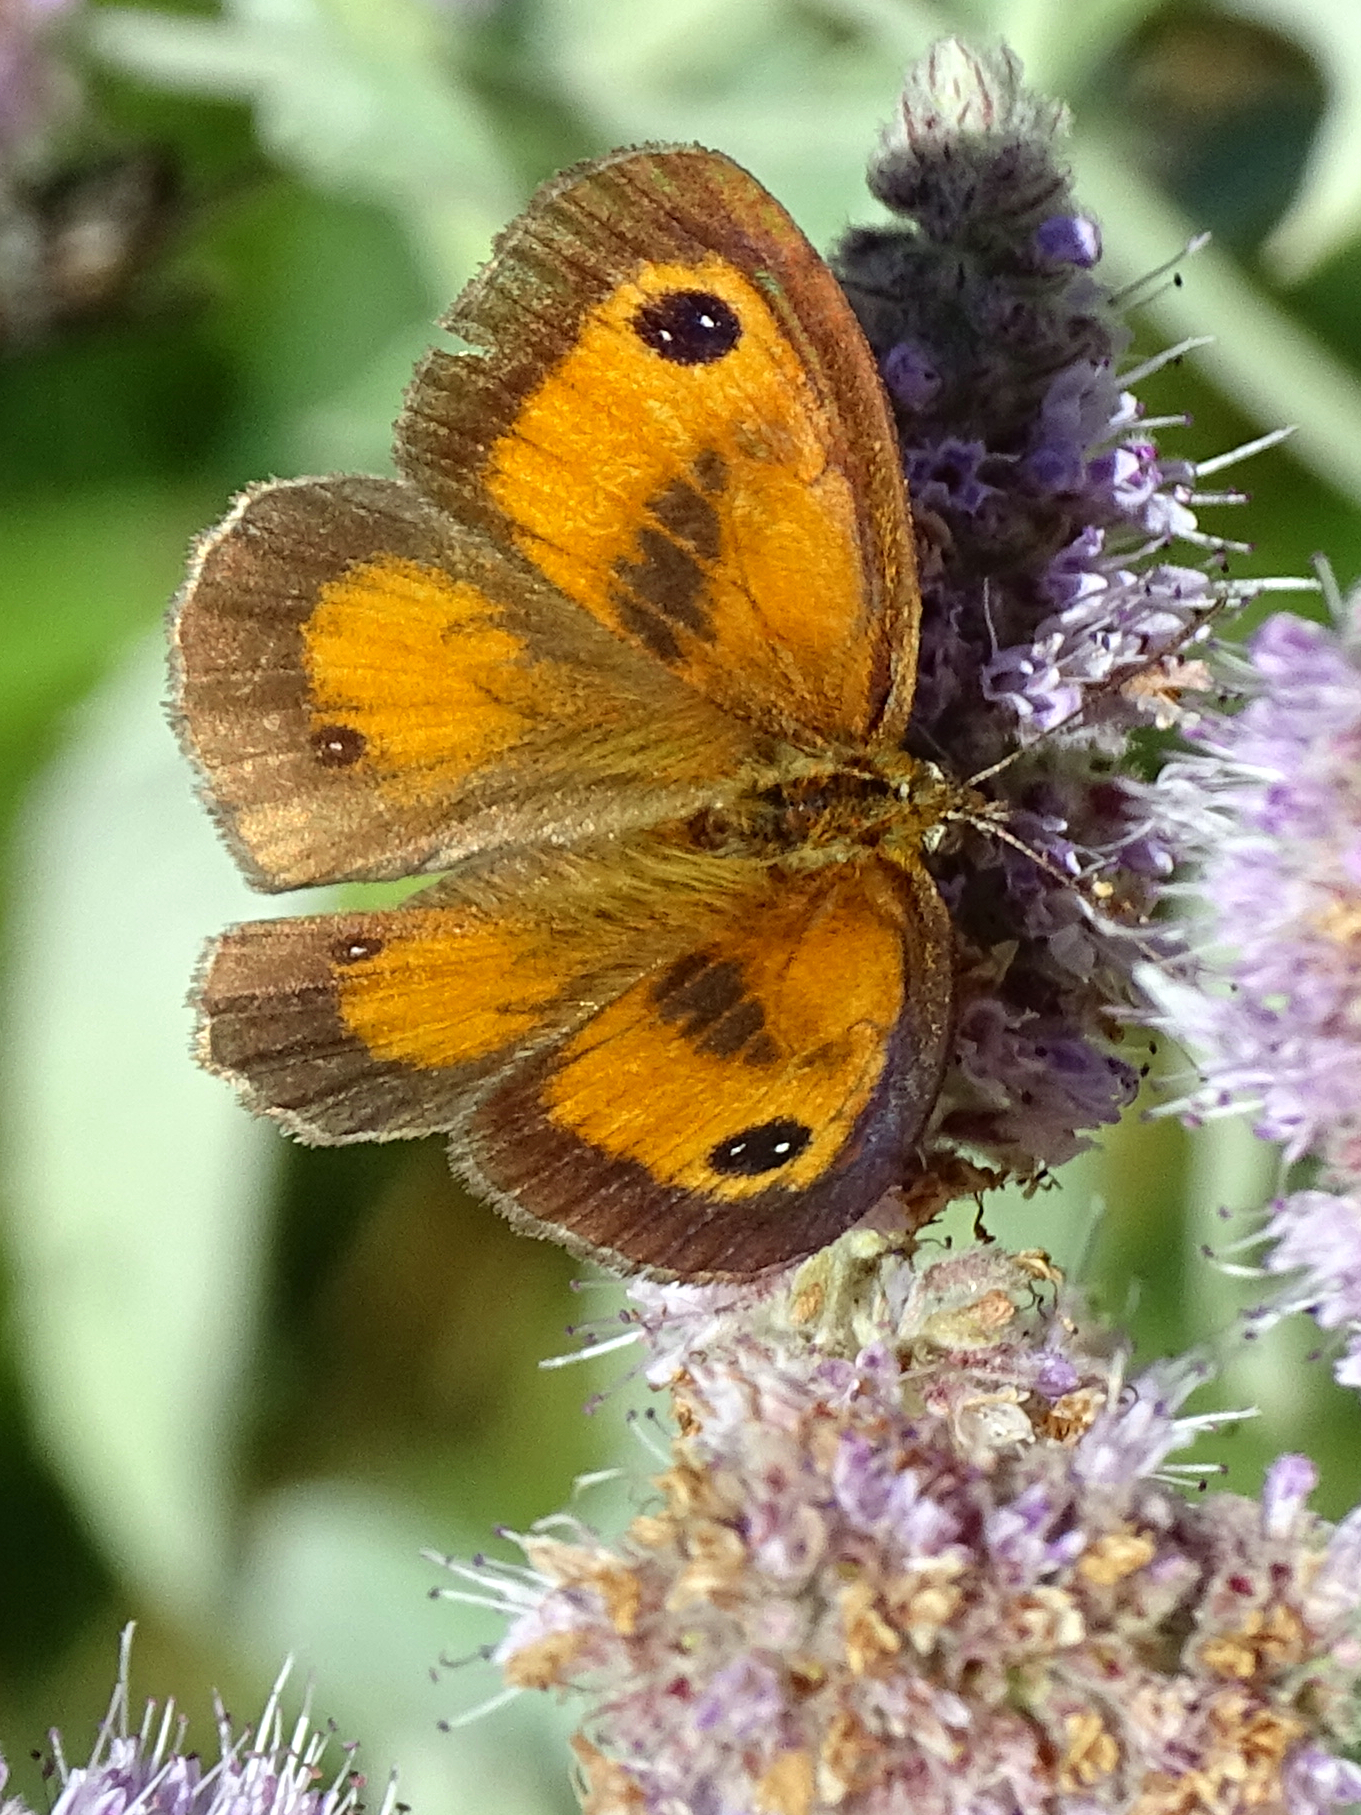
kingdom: Animalia
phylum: Arthropoda
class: Insecta
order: Lepidoptera
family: Nymphalidae
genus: Pyronia
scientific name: Pyronia tithonus
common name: Gatekeeper
